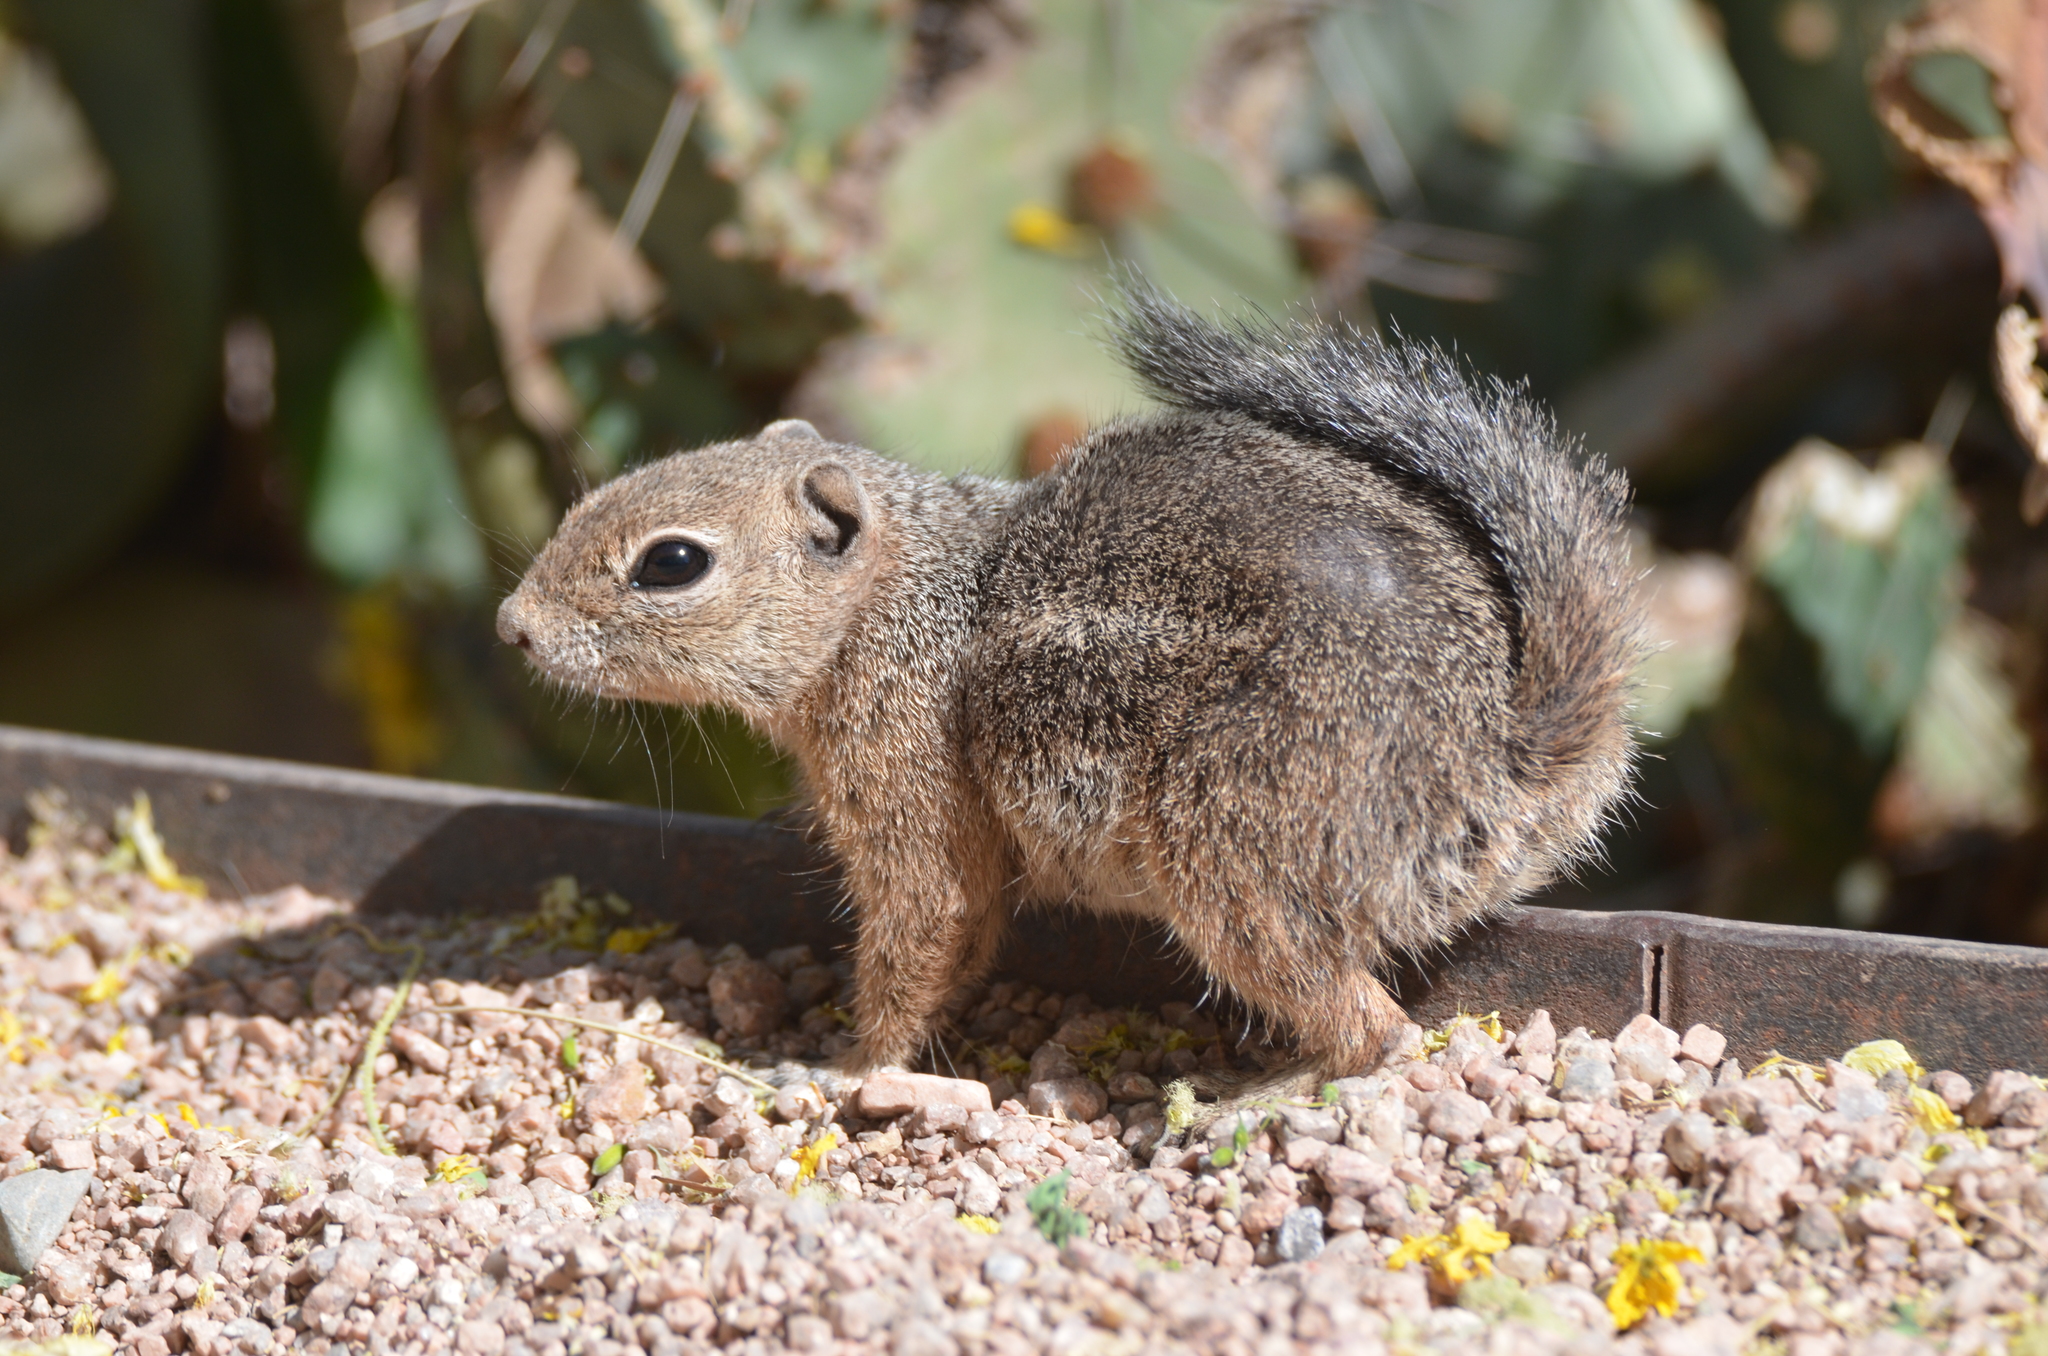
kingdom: Animalia
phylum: Chordata
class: Mammalia
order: Rodentia
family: Sciuridae
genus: Ammospermophilus
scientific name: Ammospermophilus harrisii
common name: Harris's antelope squirrel
